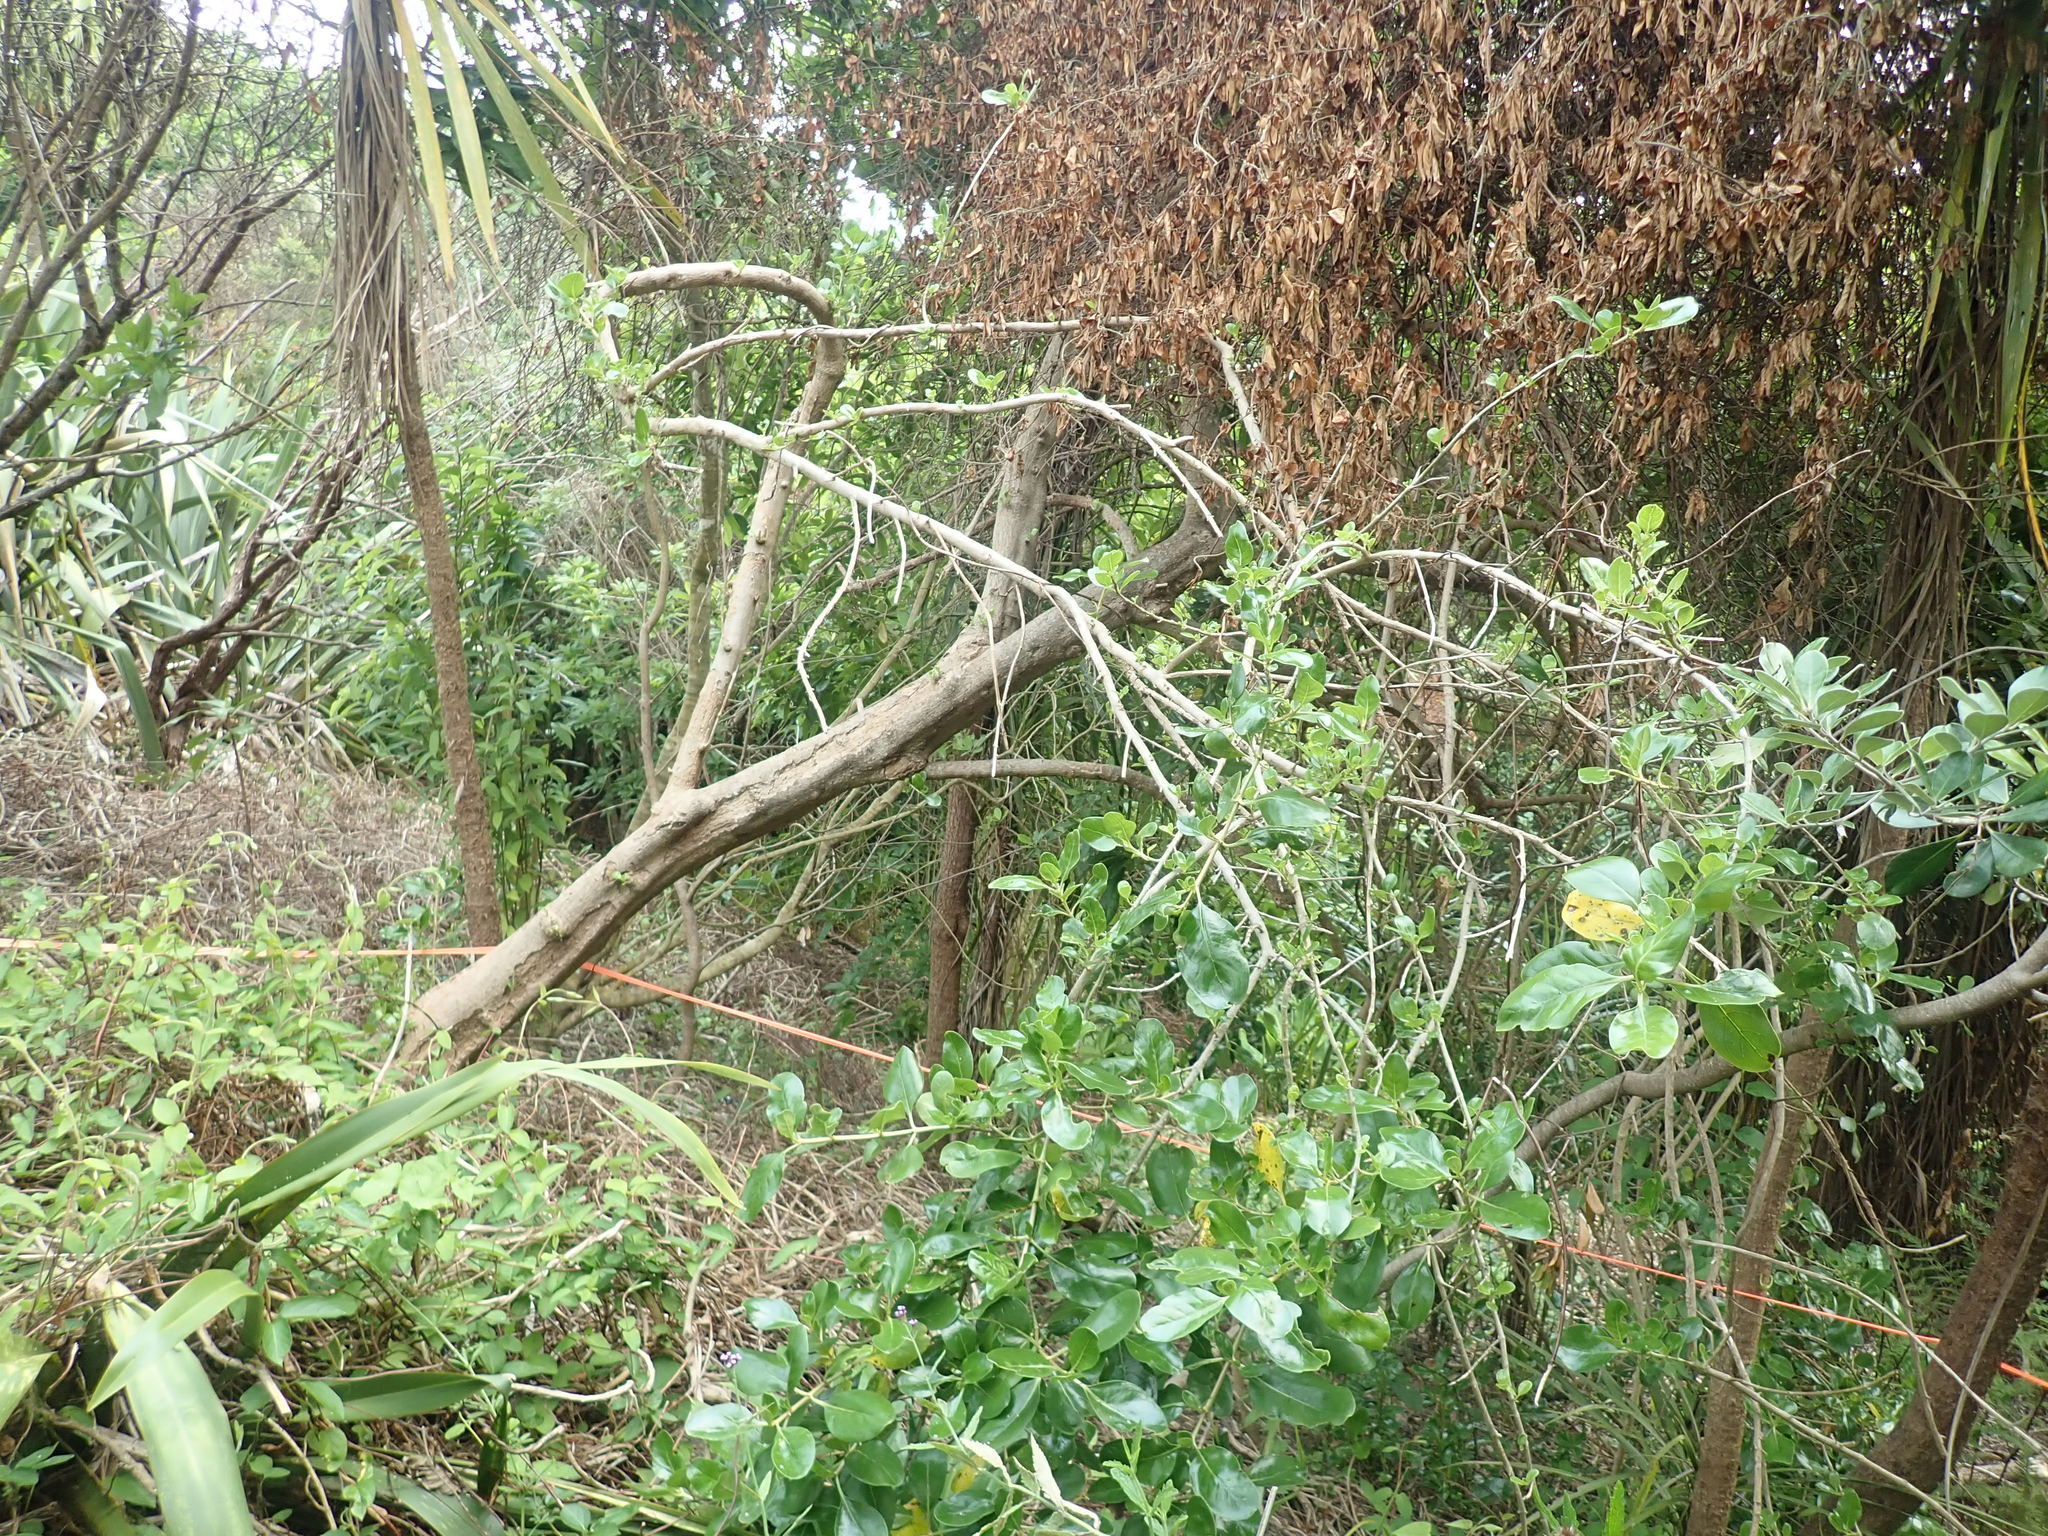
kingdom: Plantae
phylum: Tracheophyta
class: Liliopsida
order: Asparagales
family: Asparagaceae
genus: Cordyline
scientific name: Cordyline australis
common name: Cabbage-palm
